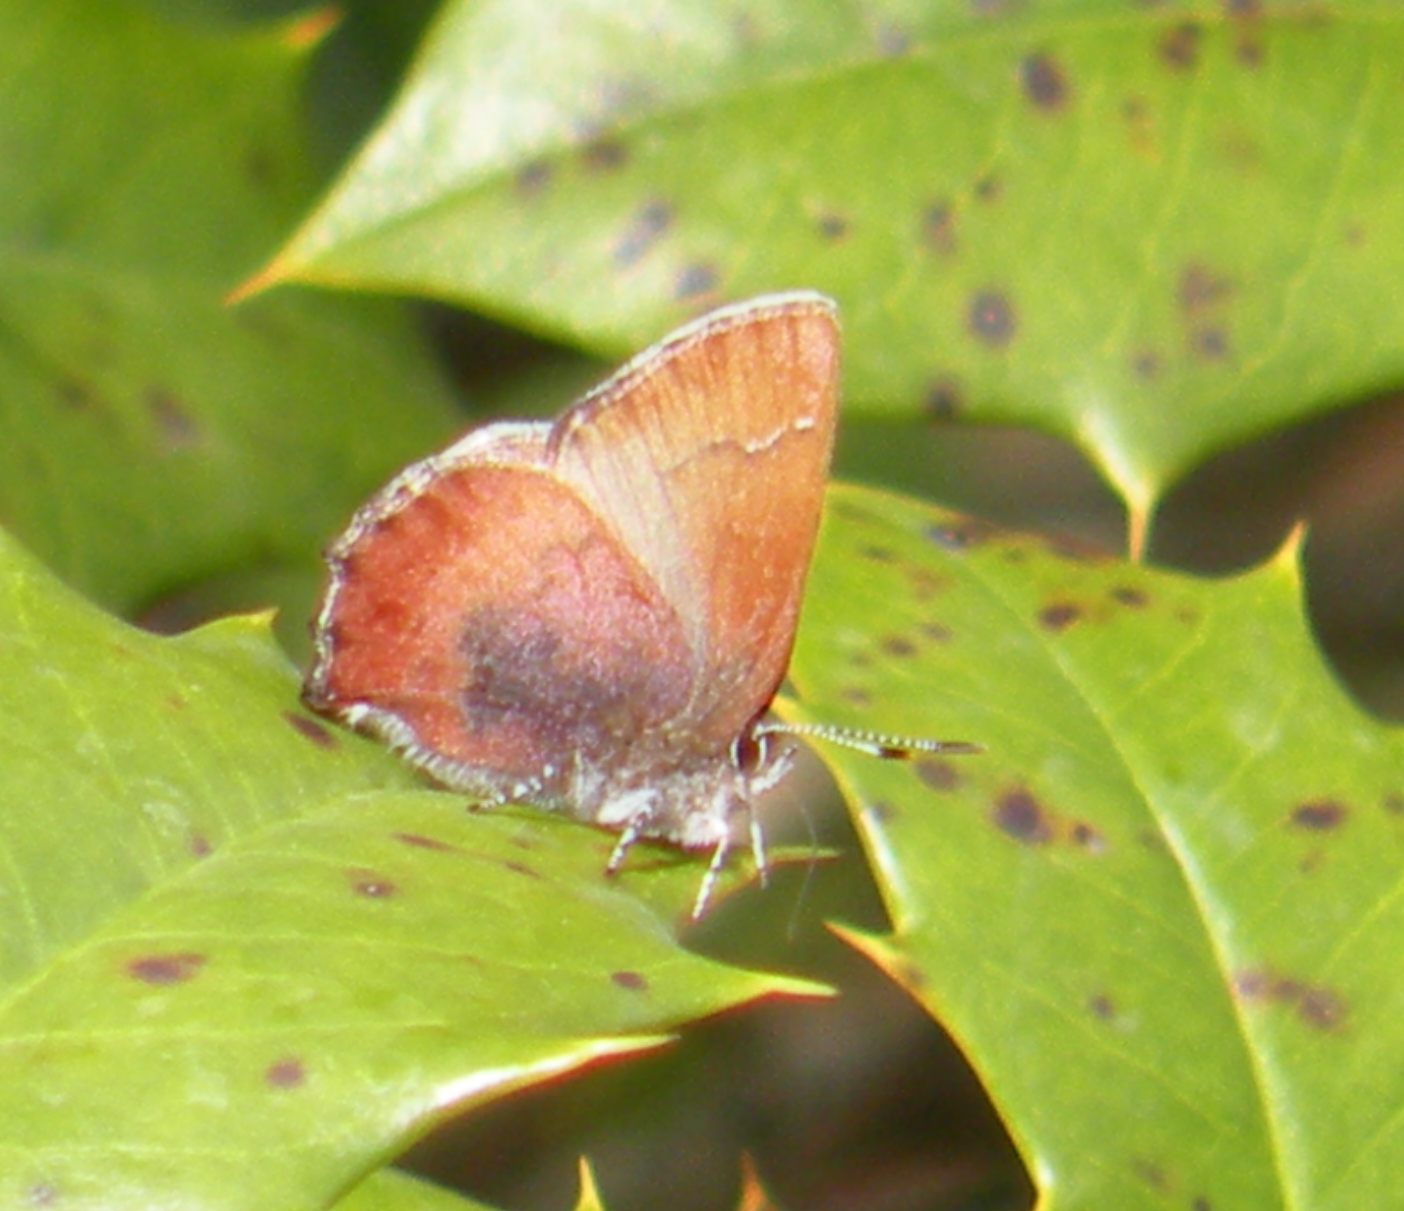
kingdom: Animalia
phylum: Arthropoda
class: Insecta
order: Lepidoptera
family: Lycaenidae
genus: Incisalia
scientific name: Incisalia irioides
